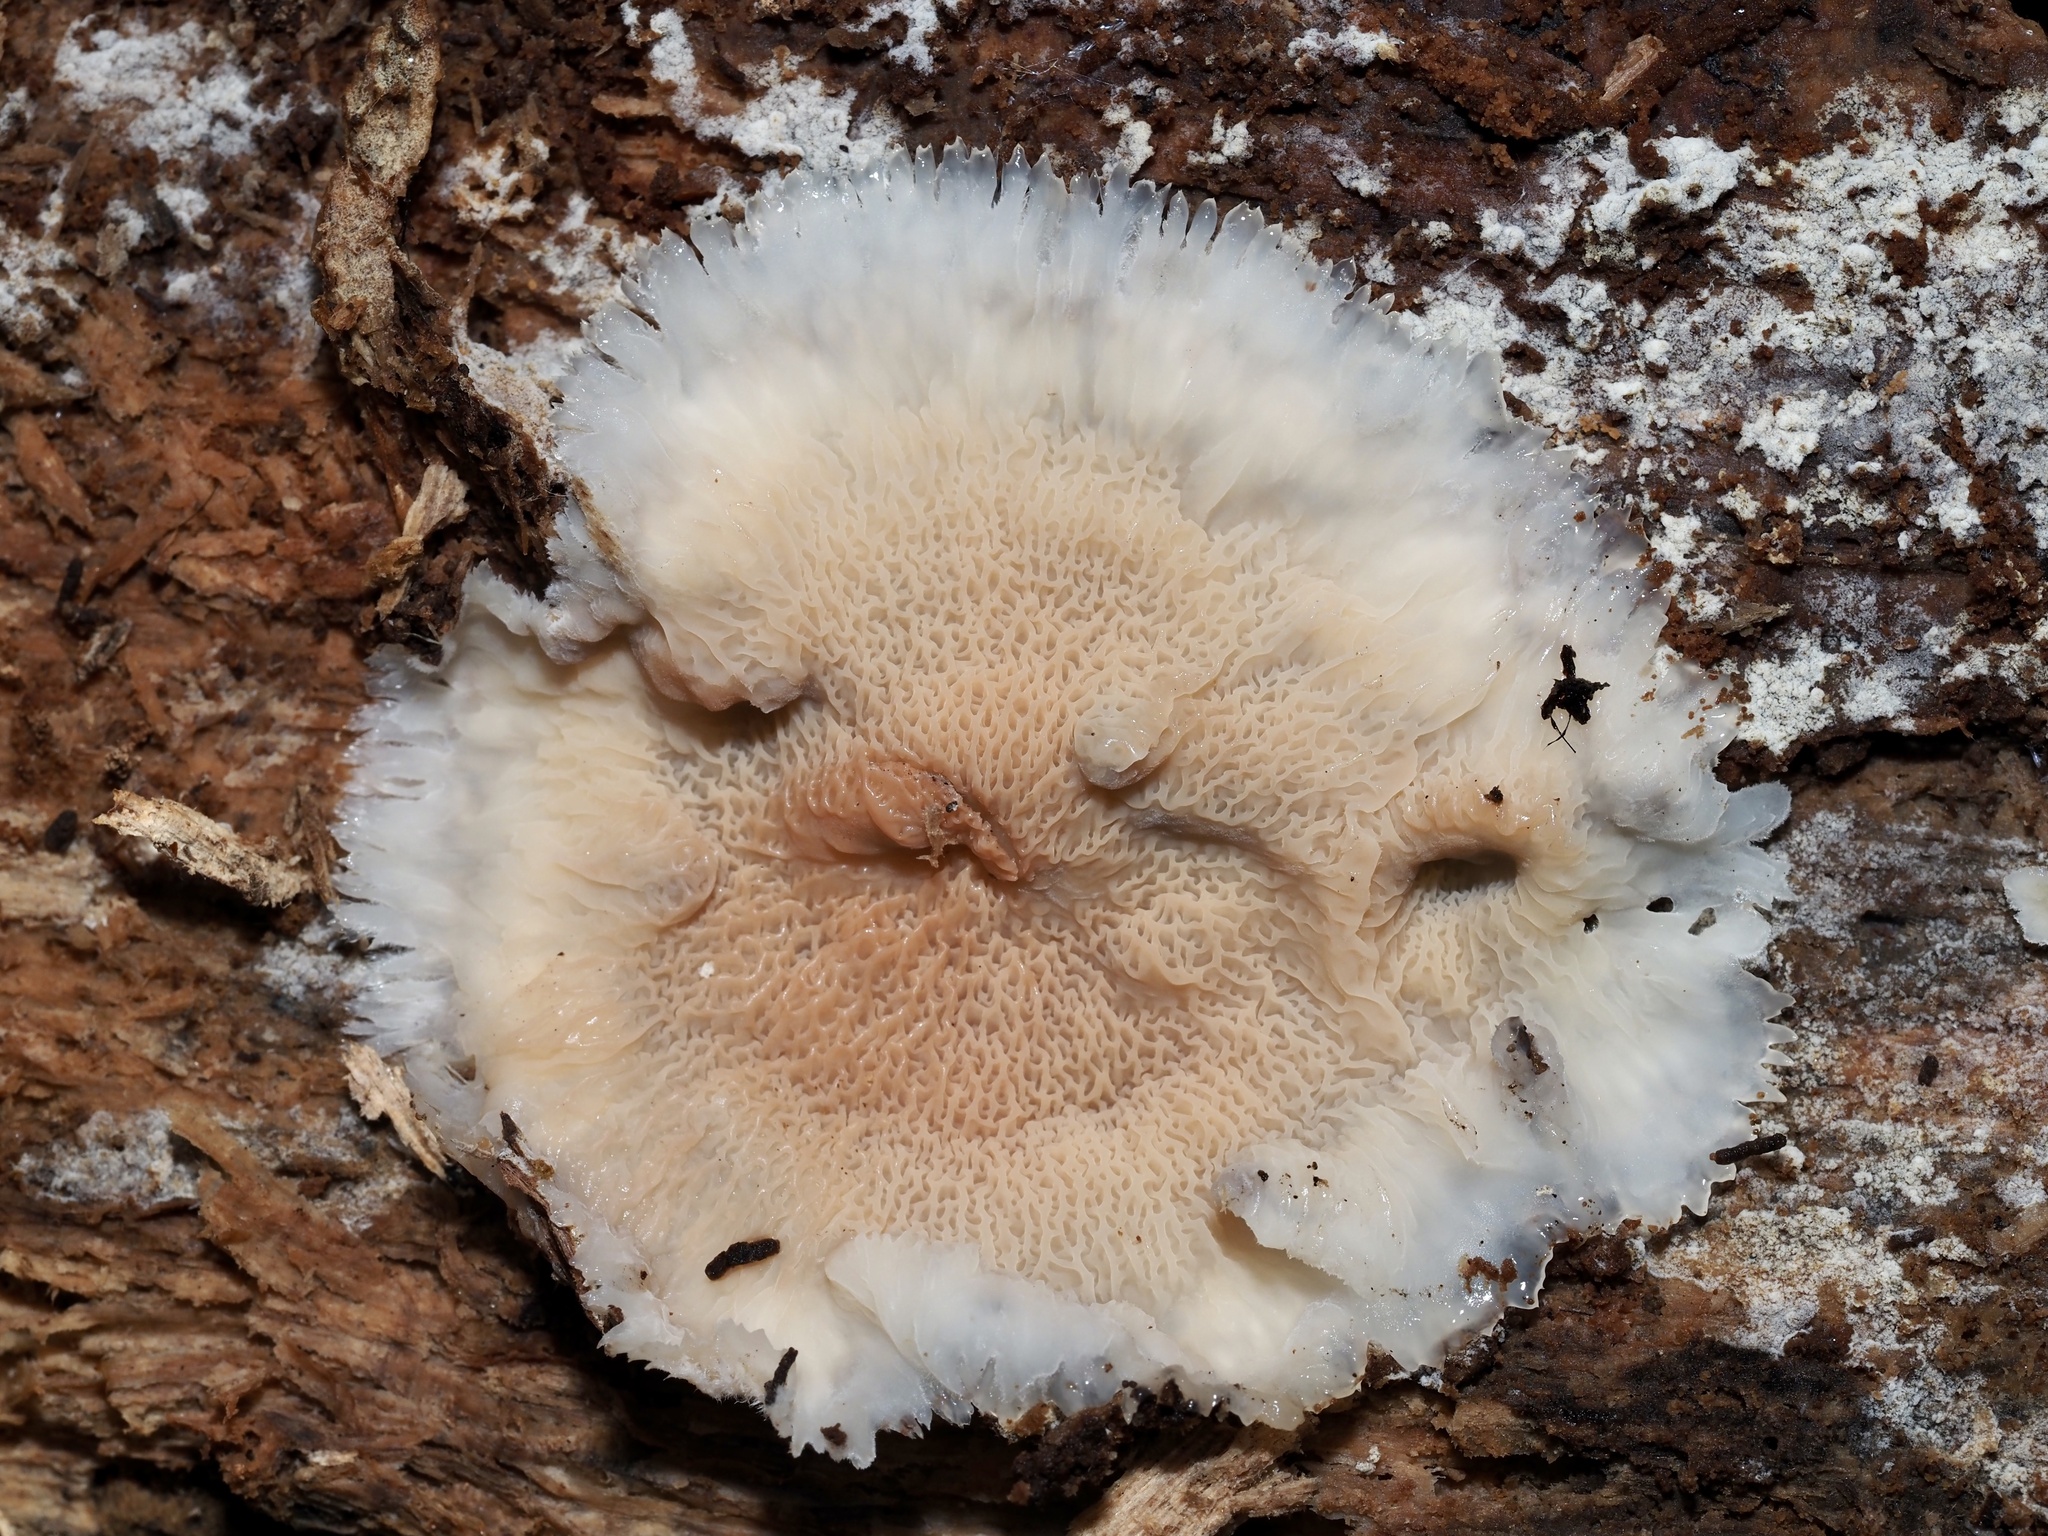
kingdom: Fungi
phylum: Basidiomycota
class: Agaricomycetes
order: Polyporales
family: Meruliaceae
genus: Phlebia
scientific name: Phlebia tremellosa
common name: Jelly rot
